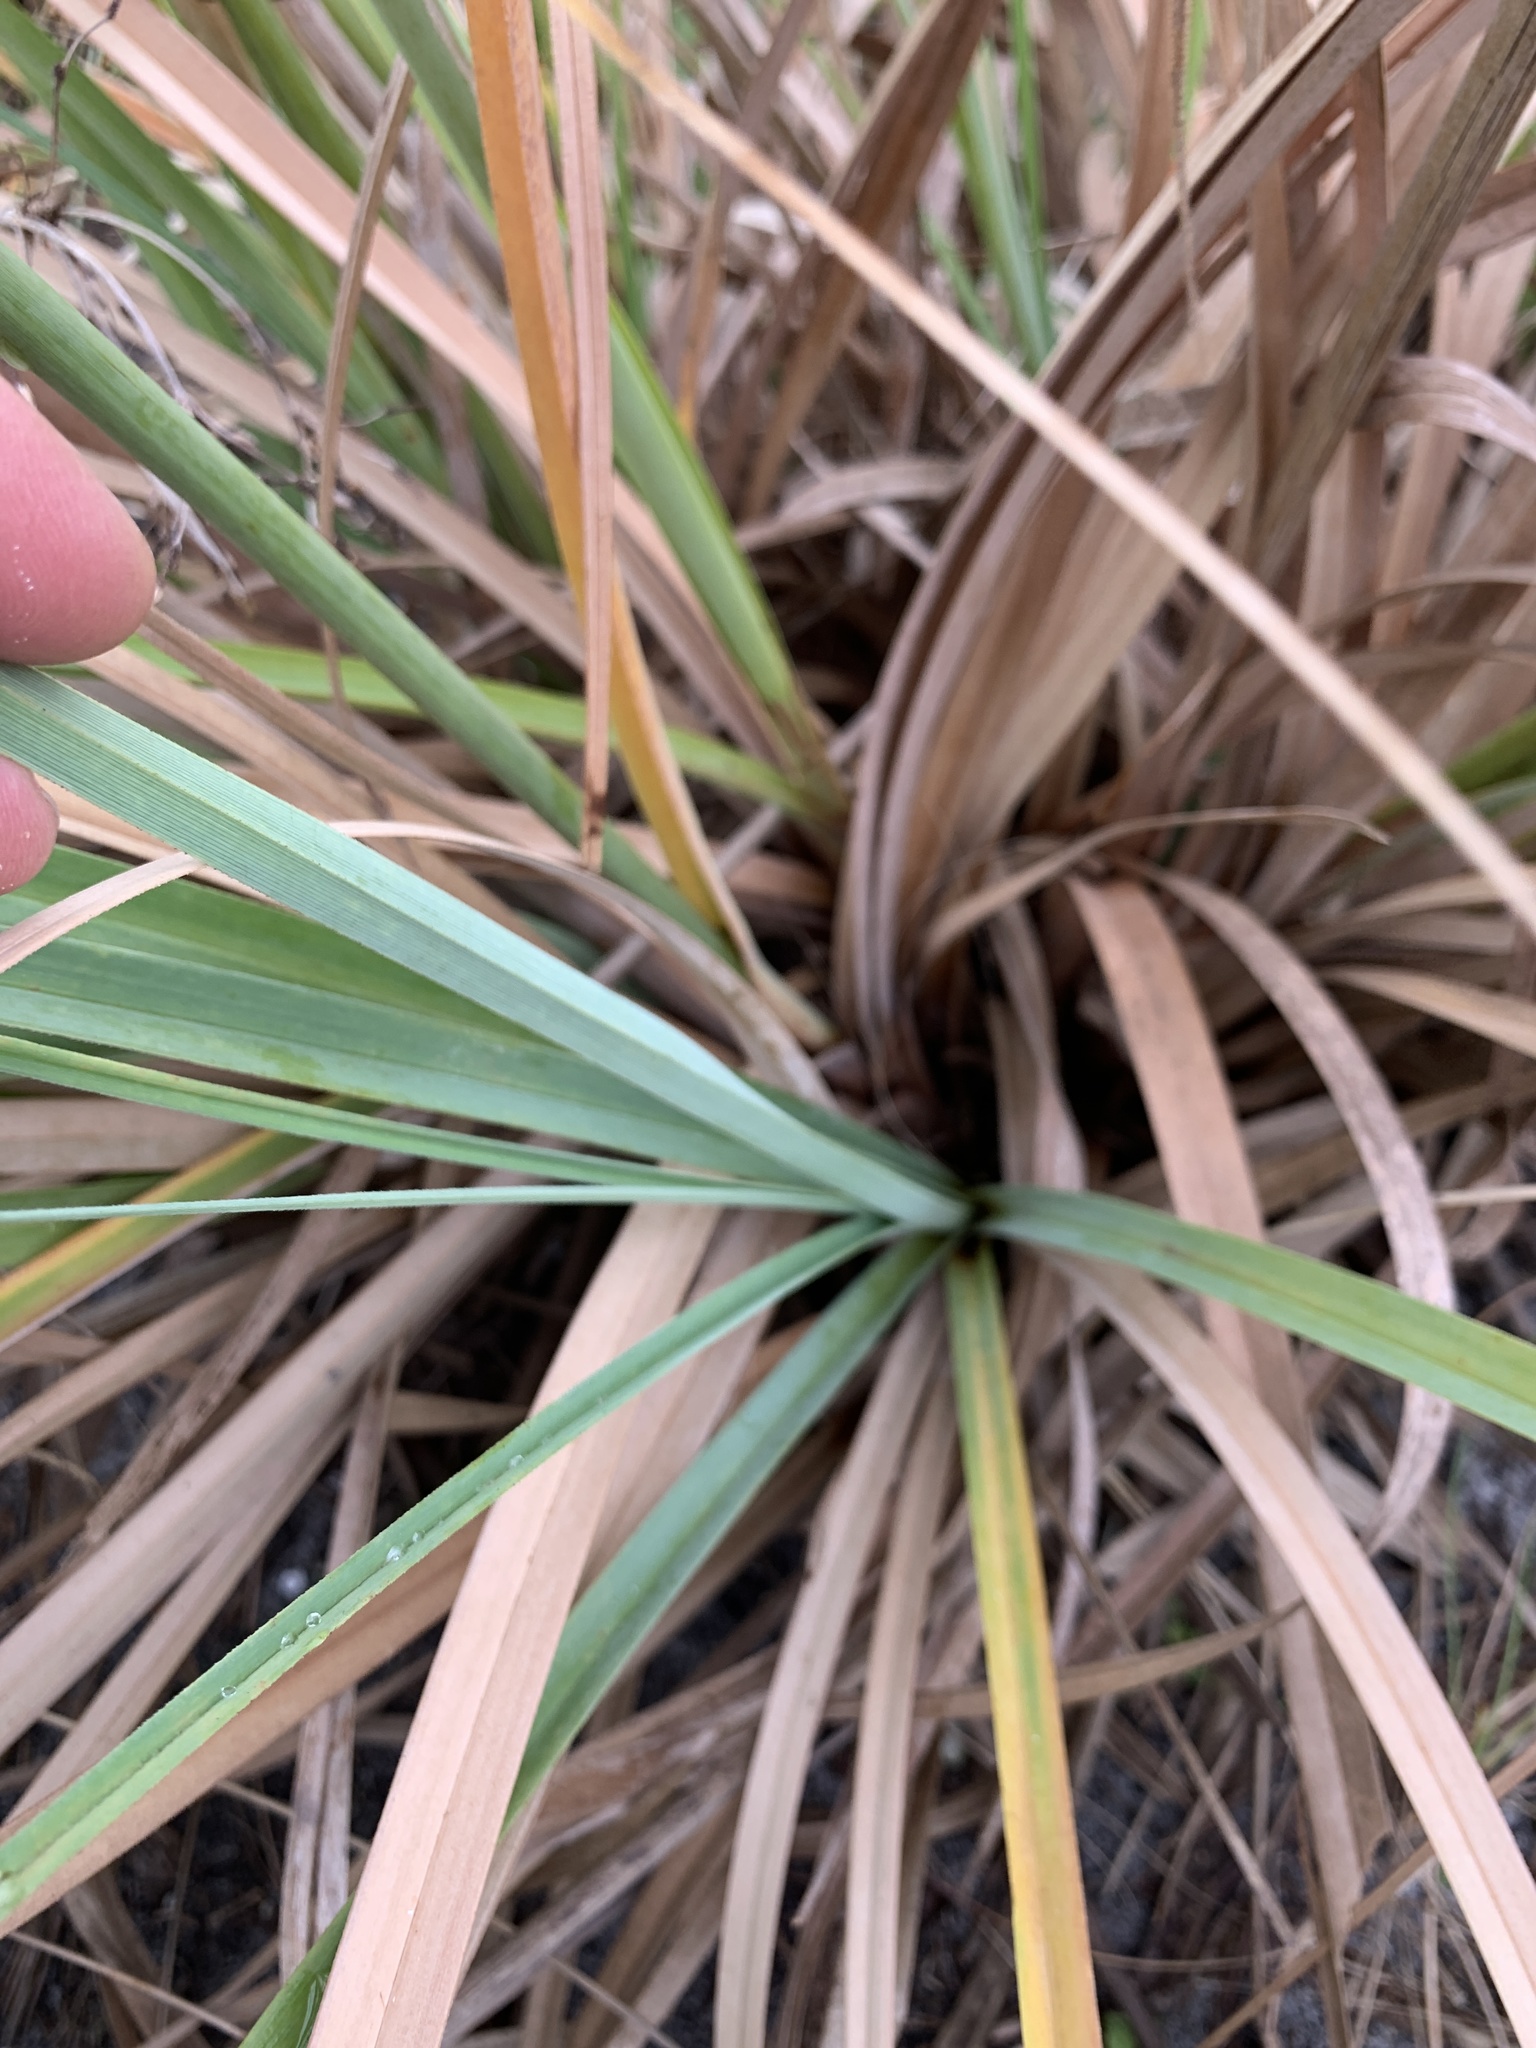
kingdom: Plantae
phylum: Tracheophyta
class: Liliopsida
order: Poales
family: Cyperaceae
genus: Cyperus
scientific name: Cyperus ligularis
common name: Swamp flat sedge
